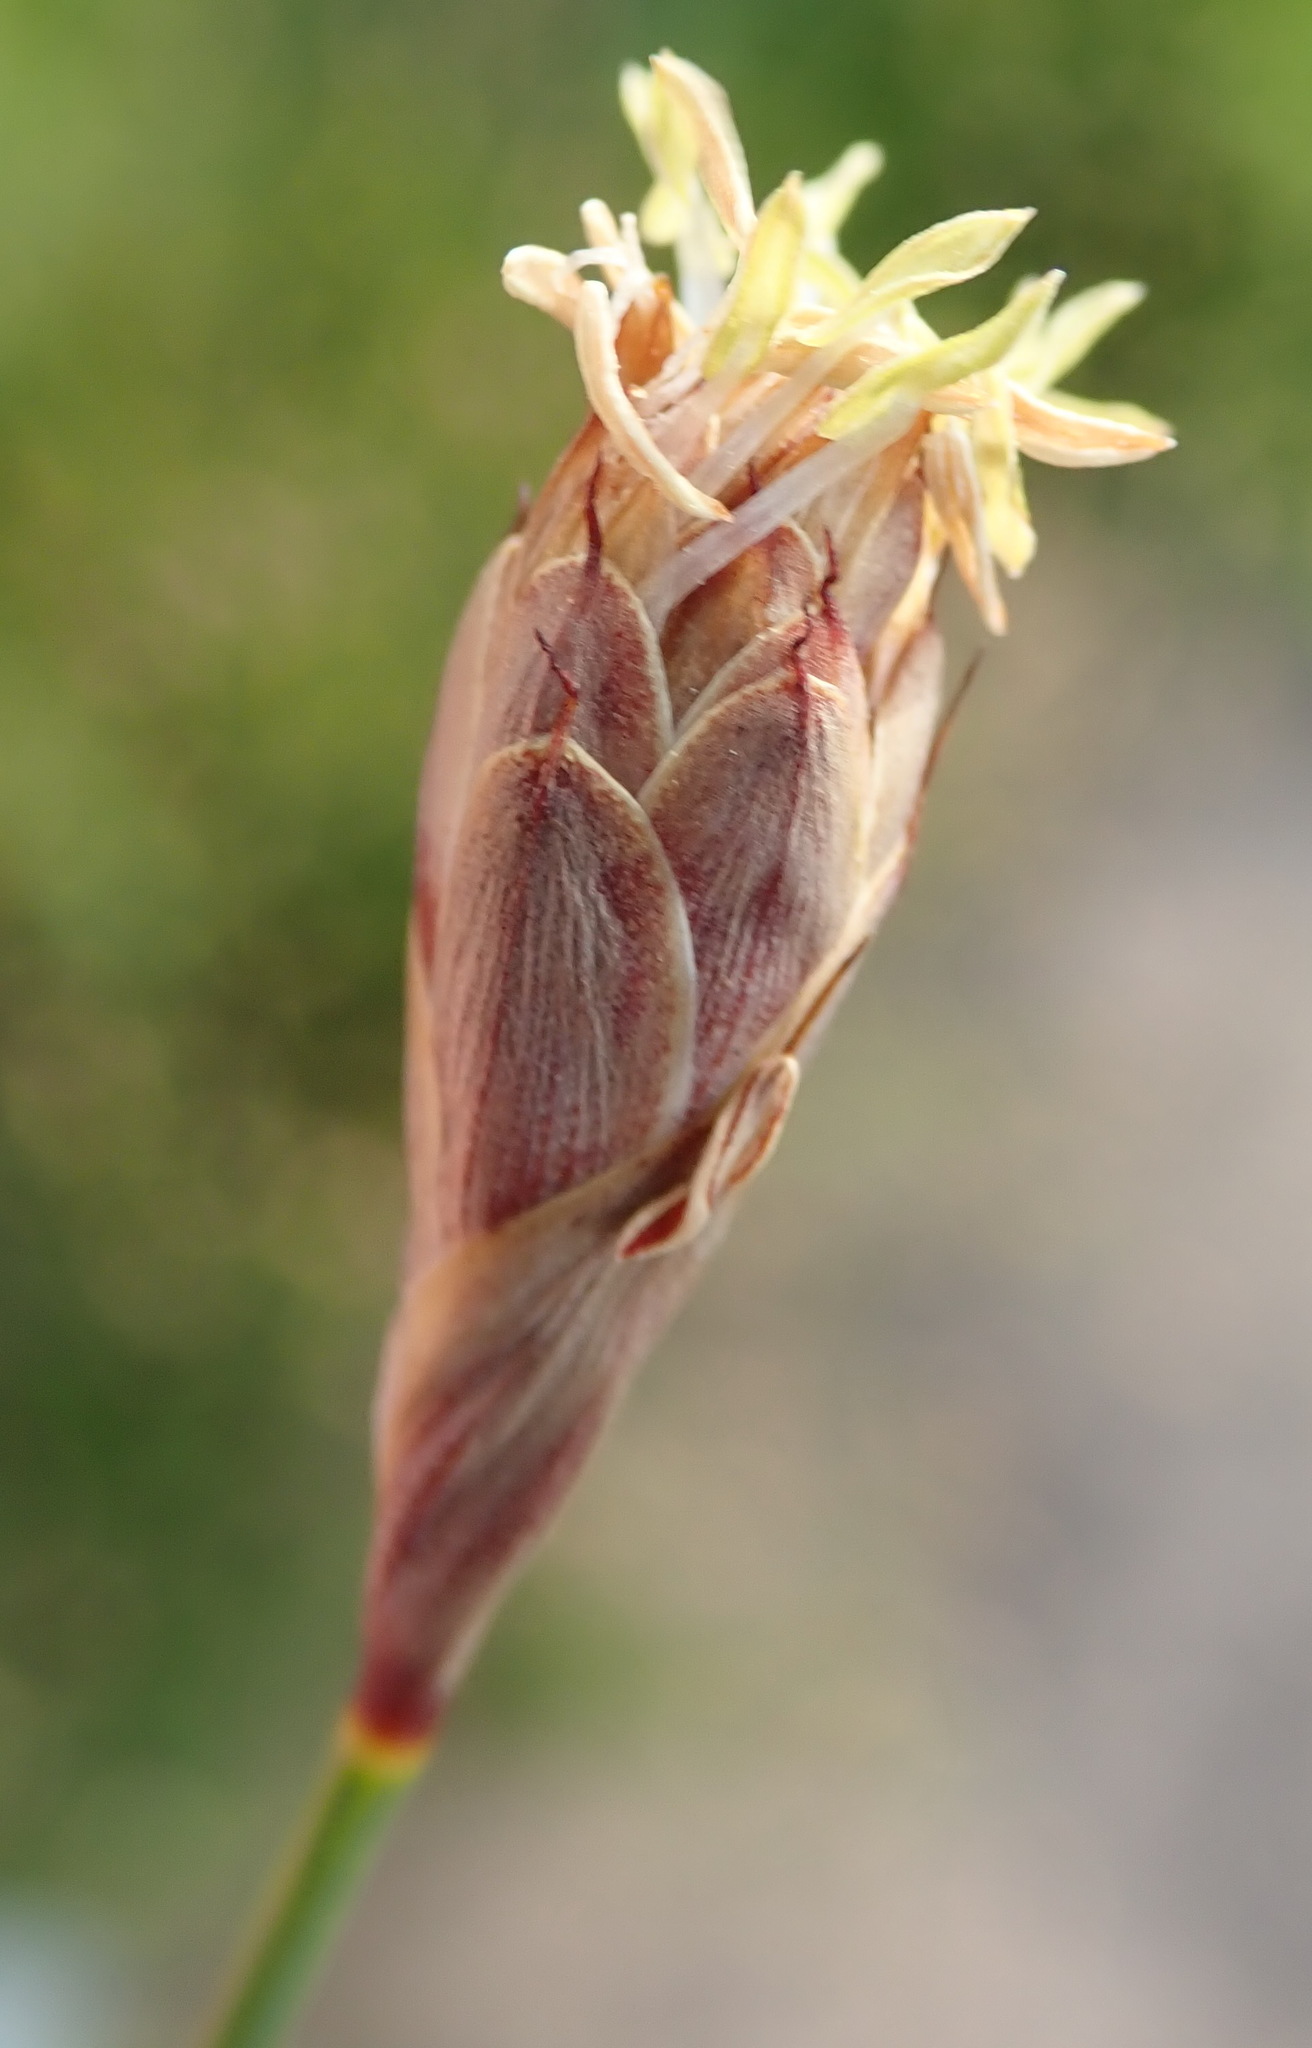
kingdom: Plantae
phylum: Tracheophyta
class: Liliopsida
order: Poales
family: Restionaceae
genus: Hypodiscus
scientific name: Hypodiscus willdenowia
